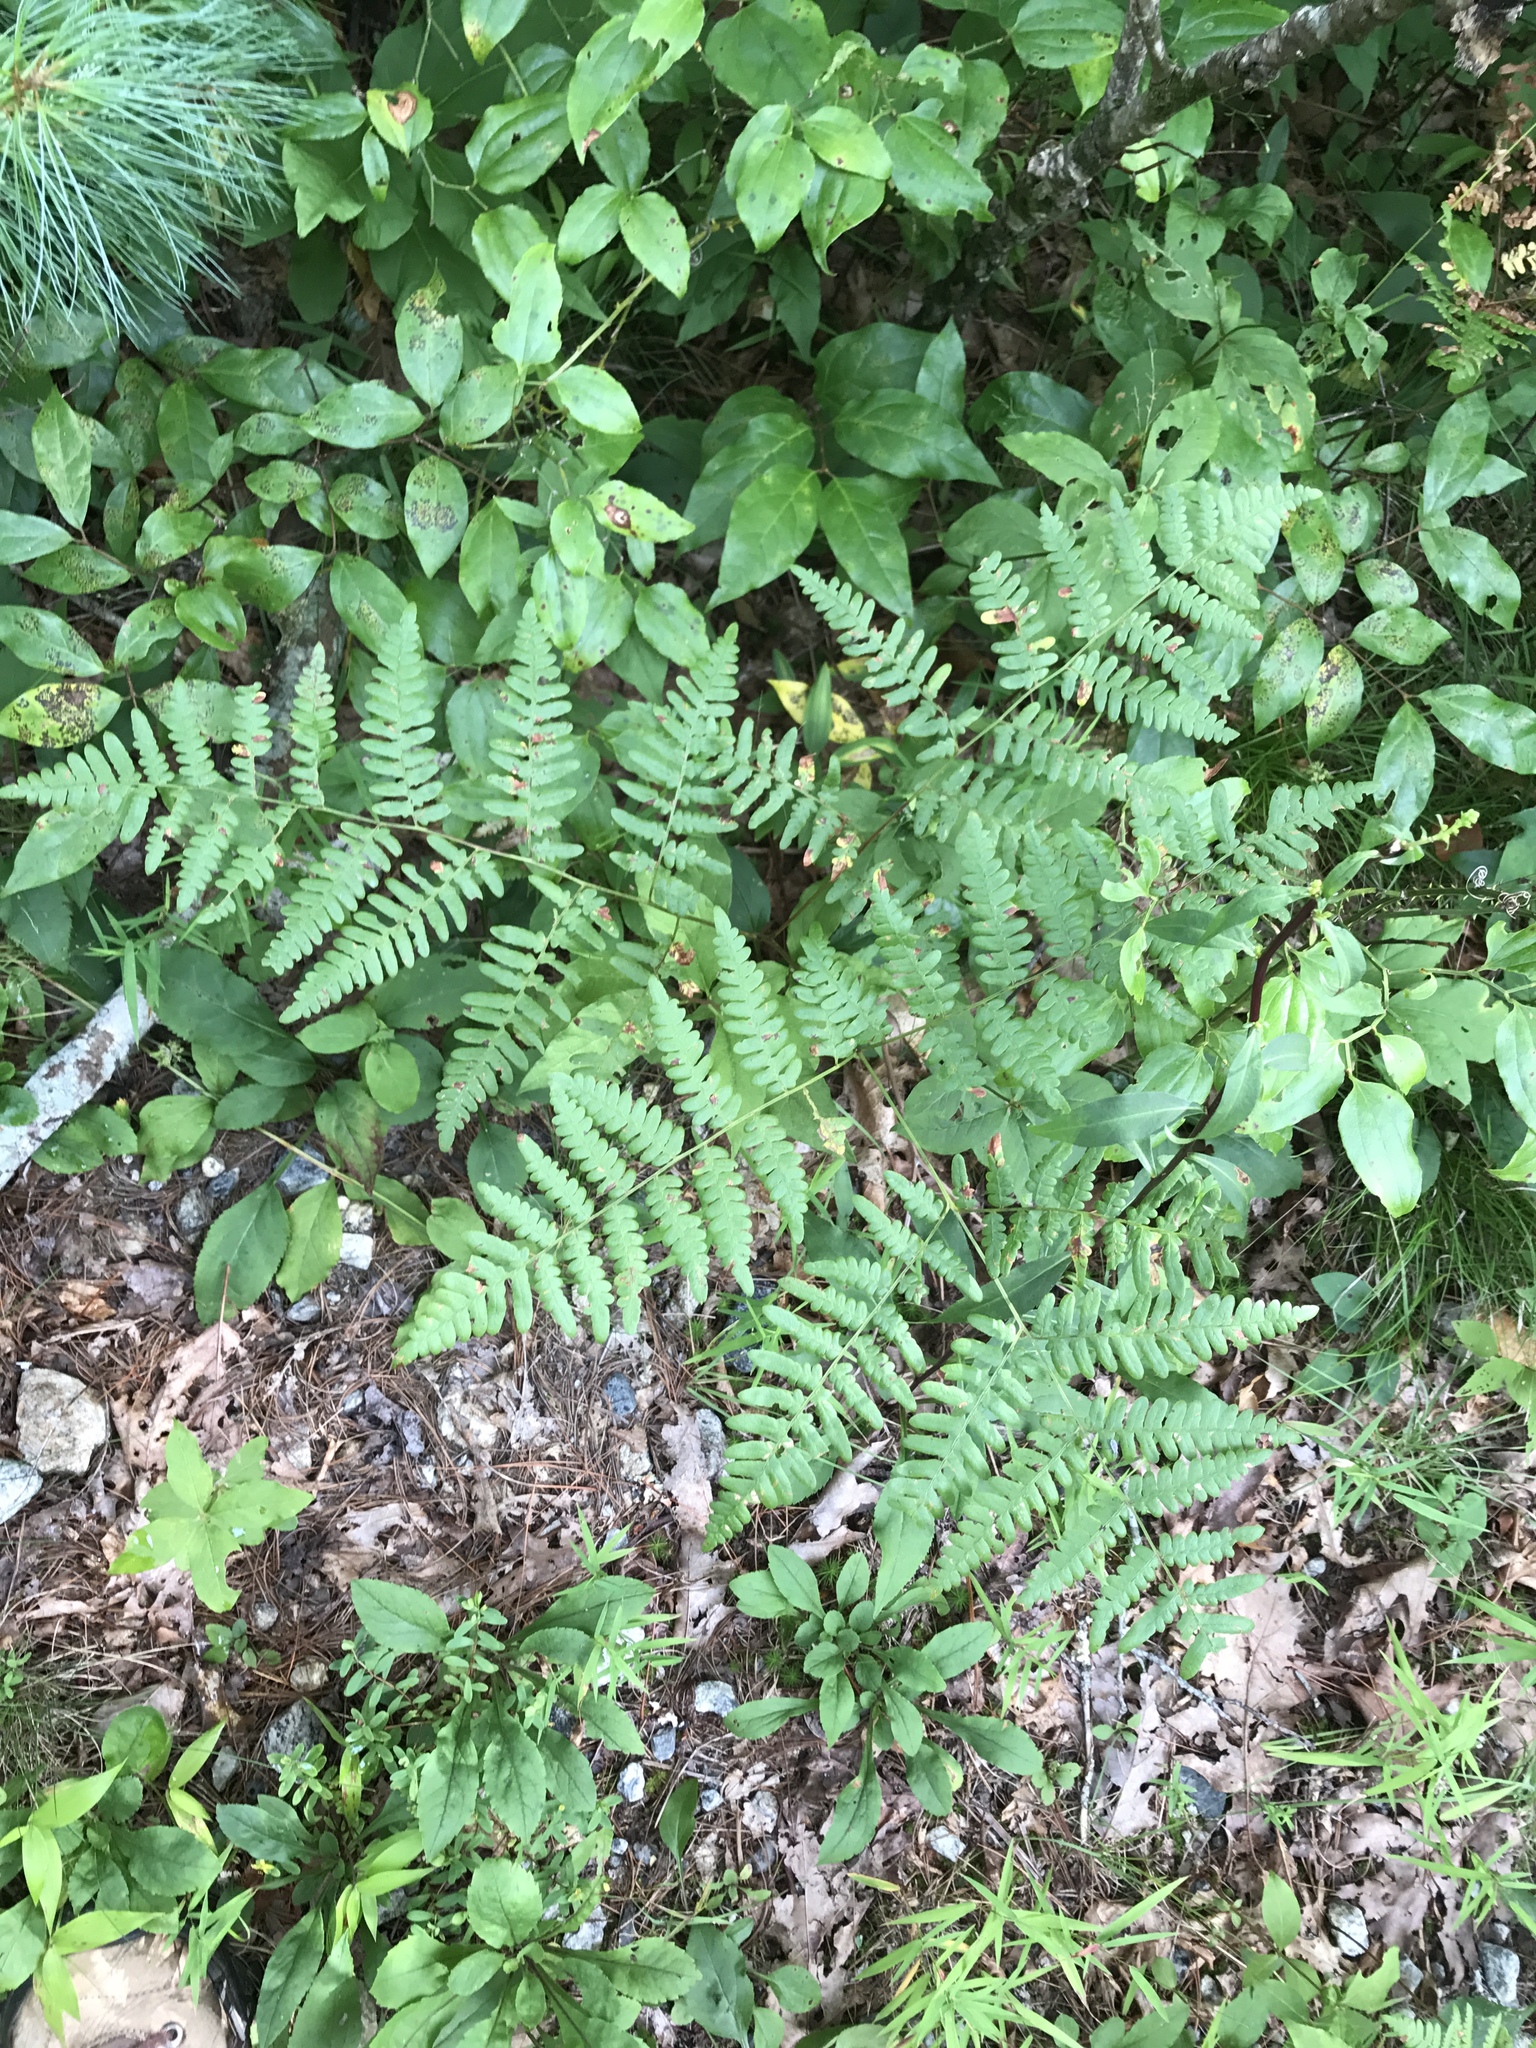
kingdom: Plantae
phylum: Tracheophyta
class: Polypodiopsida
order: Polypodiales
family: Dennstaedtiaceae
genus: Pteridium
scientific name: Pteridium aquilinum
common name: Bracken
